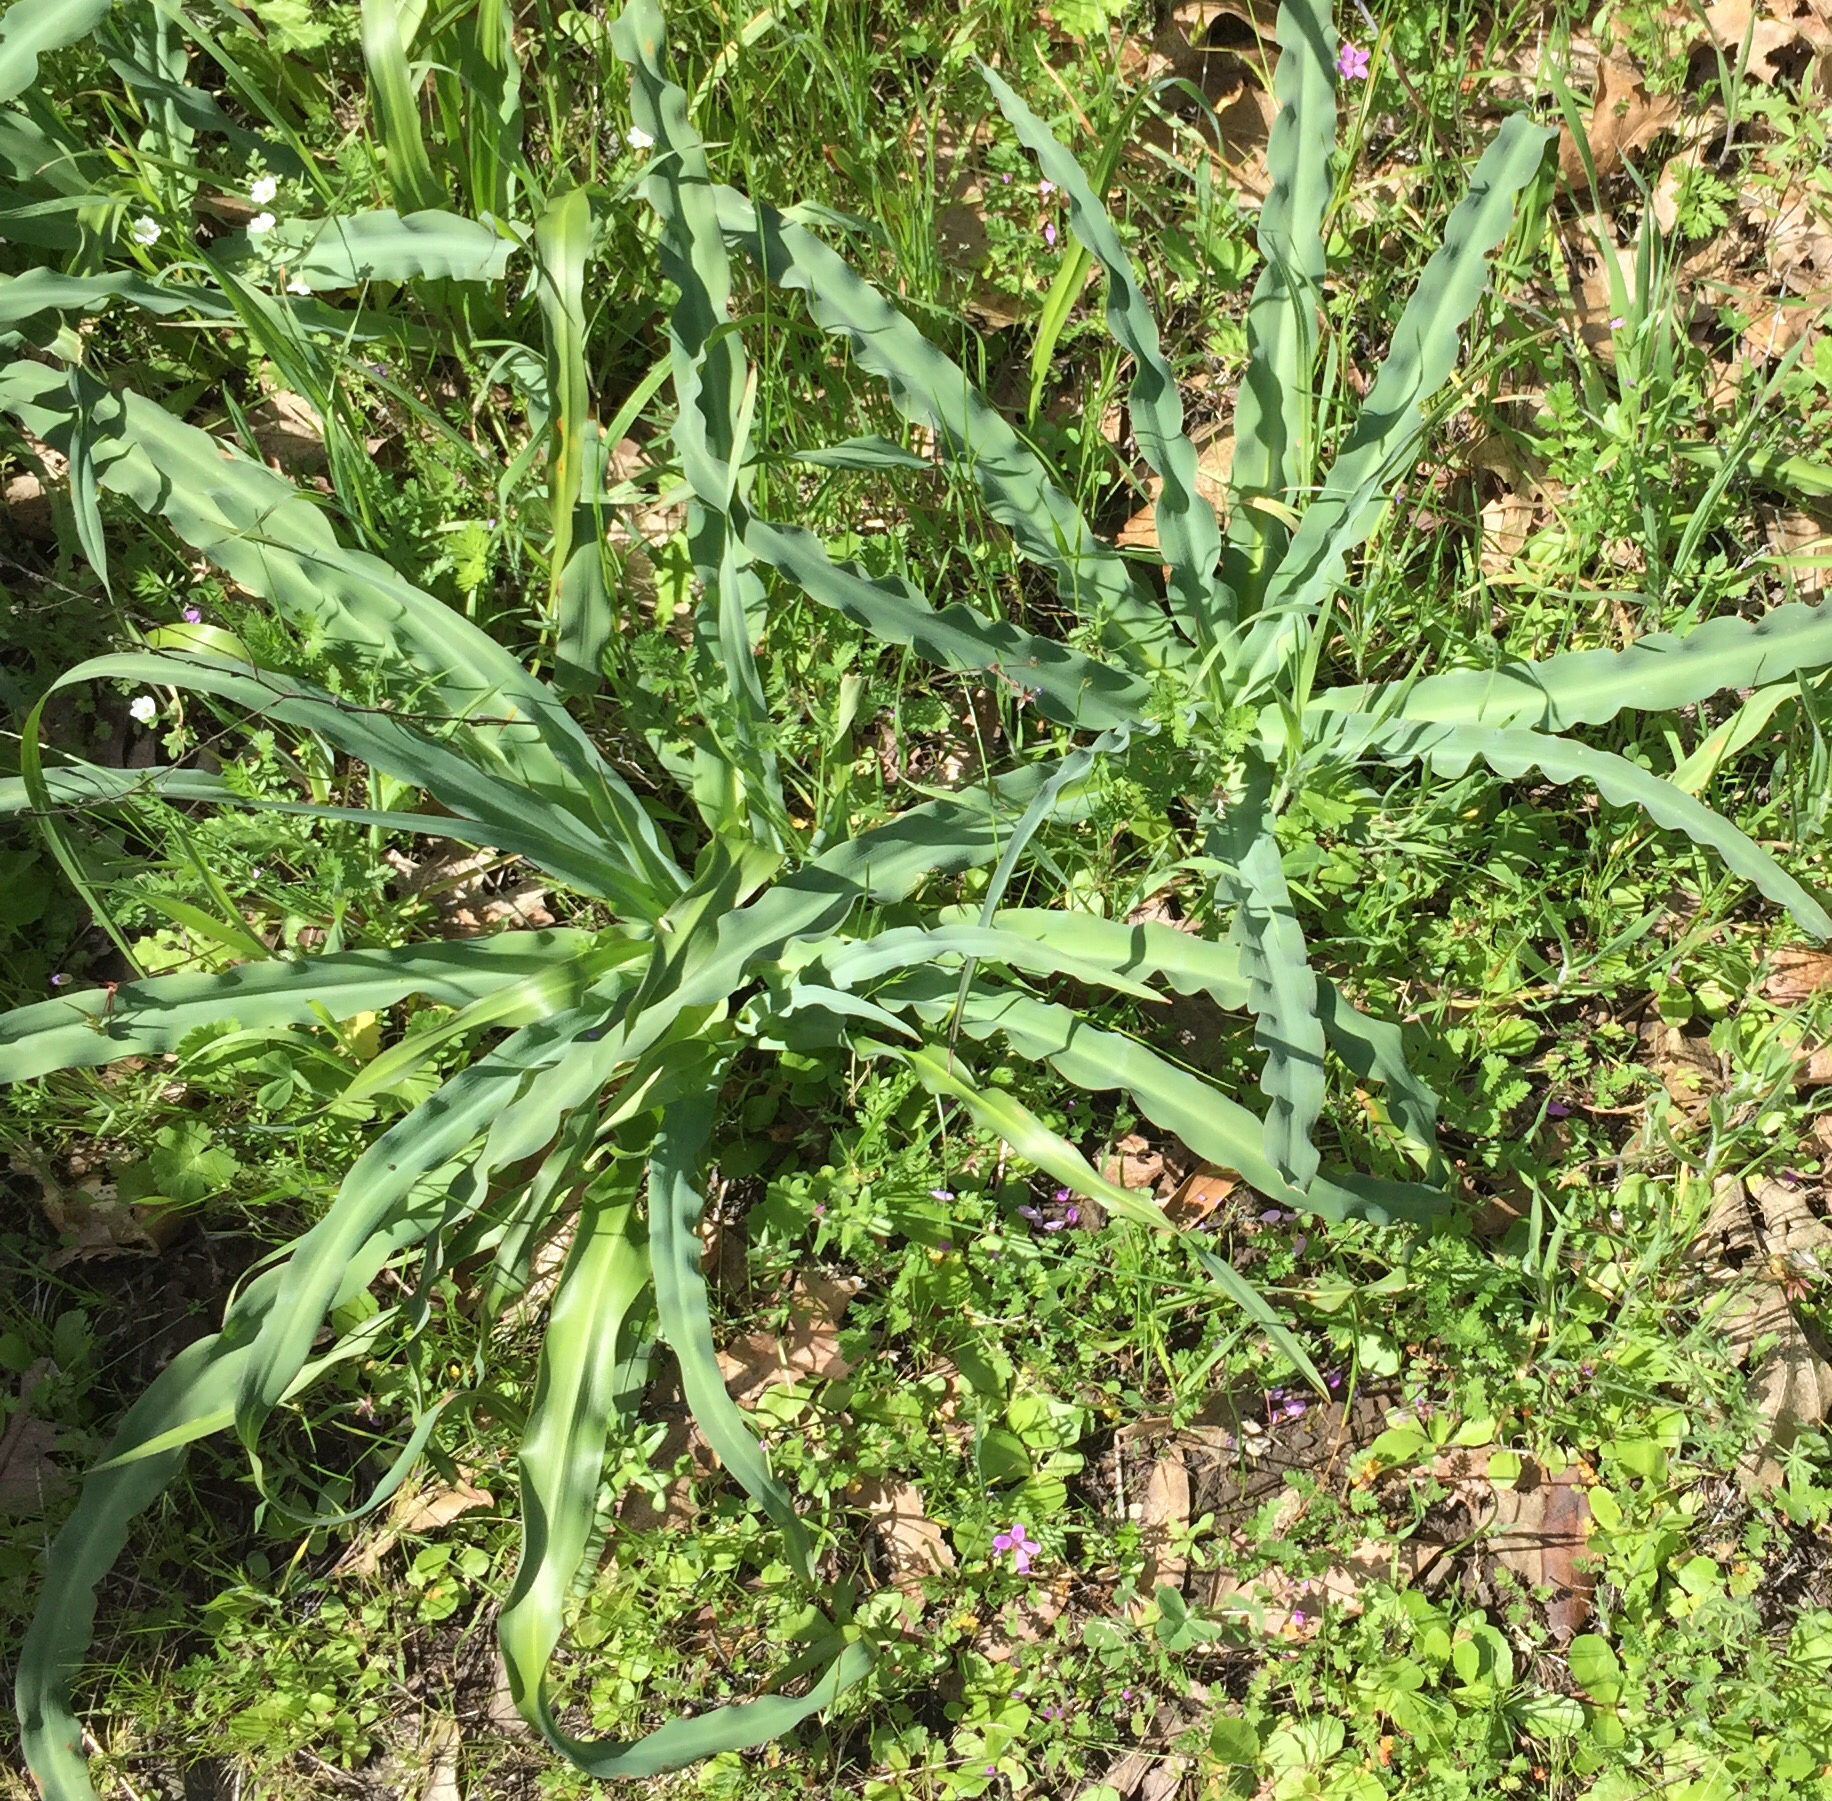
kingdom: Plantae
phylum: Tracheophyta
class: Liliopsida
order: Asparagales
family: Asparagaceae
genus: Chlorogalum
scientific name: Chlorogalum pomeridianum
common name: Amole
